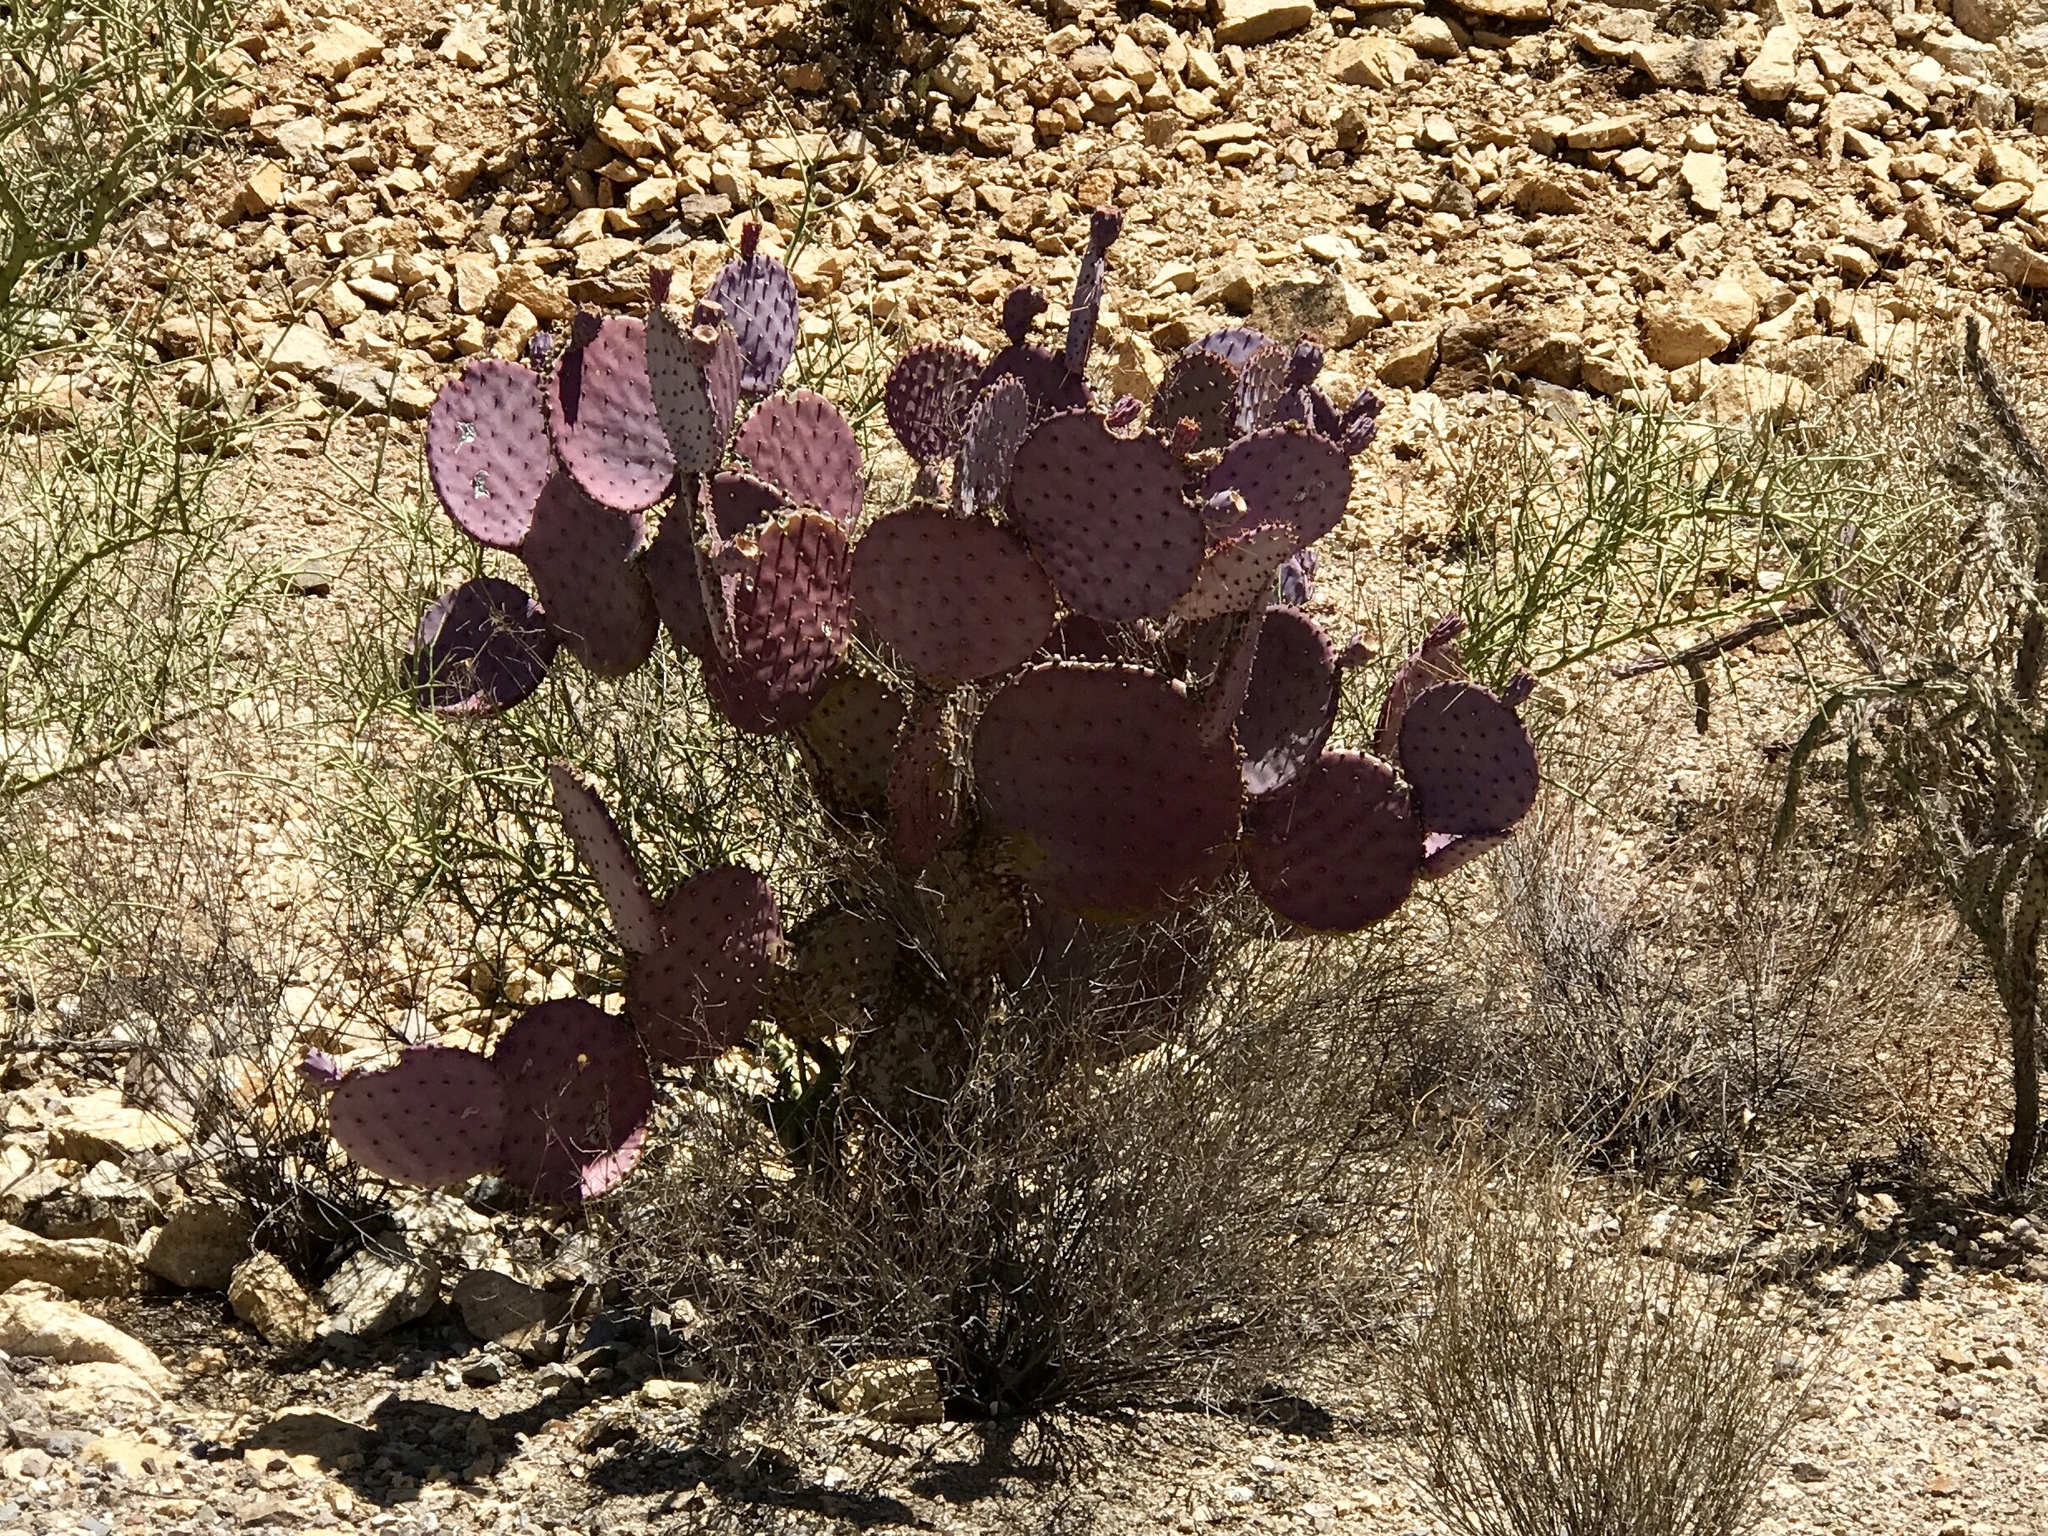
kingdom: Plantae
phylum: Tracheophyta
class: Magnoliopsida
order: Caryophyllales
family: Cactaceae
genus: Opuntia
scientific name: Opuntia gosseliniana
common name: Violet prickly-pear
